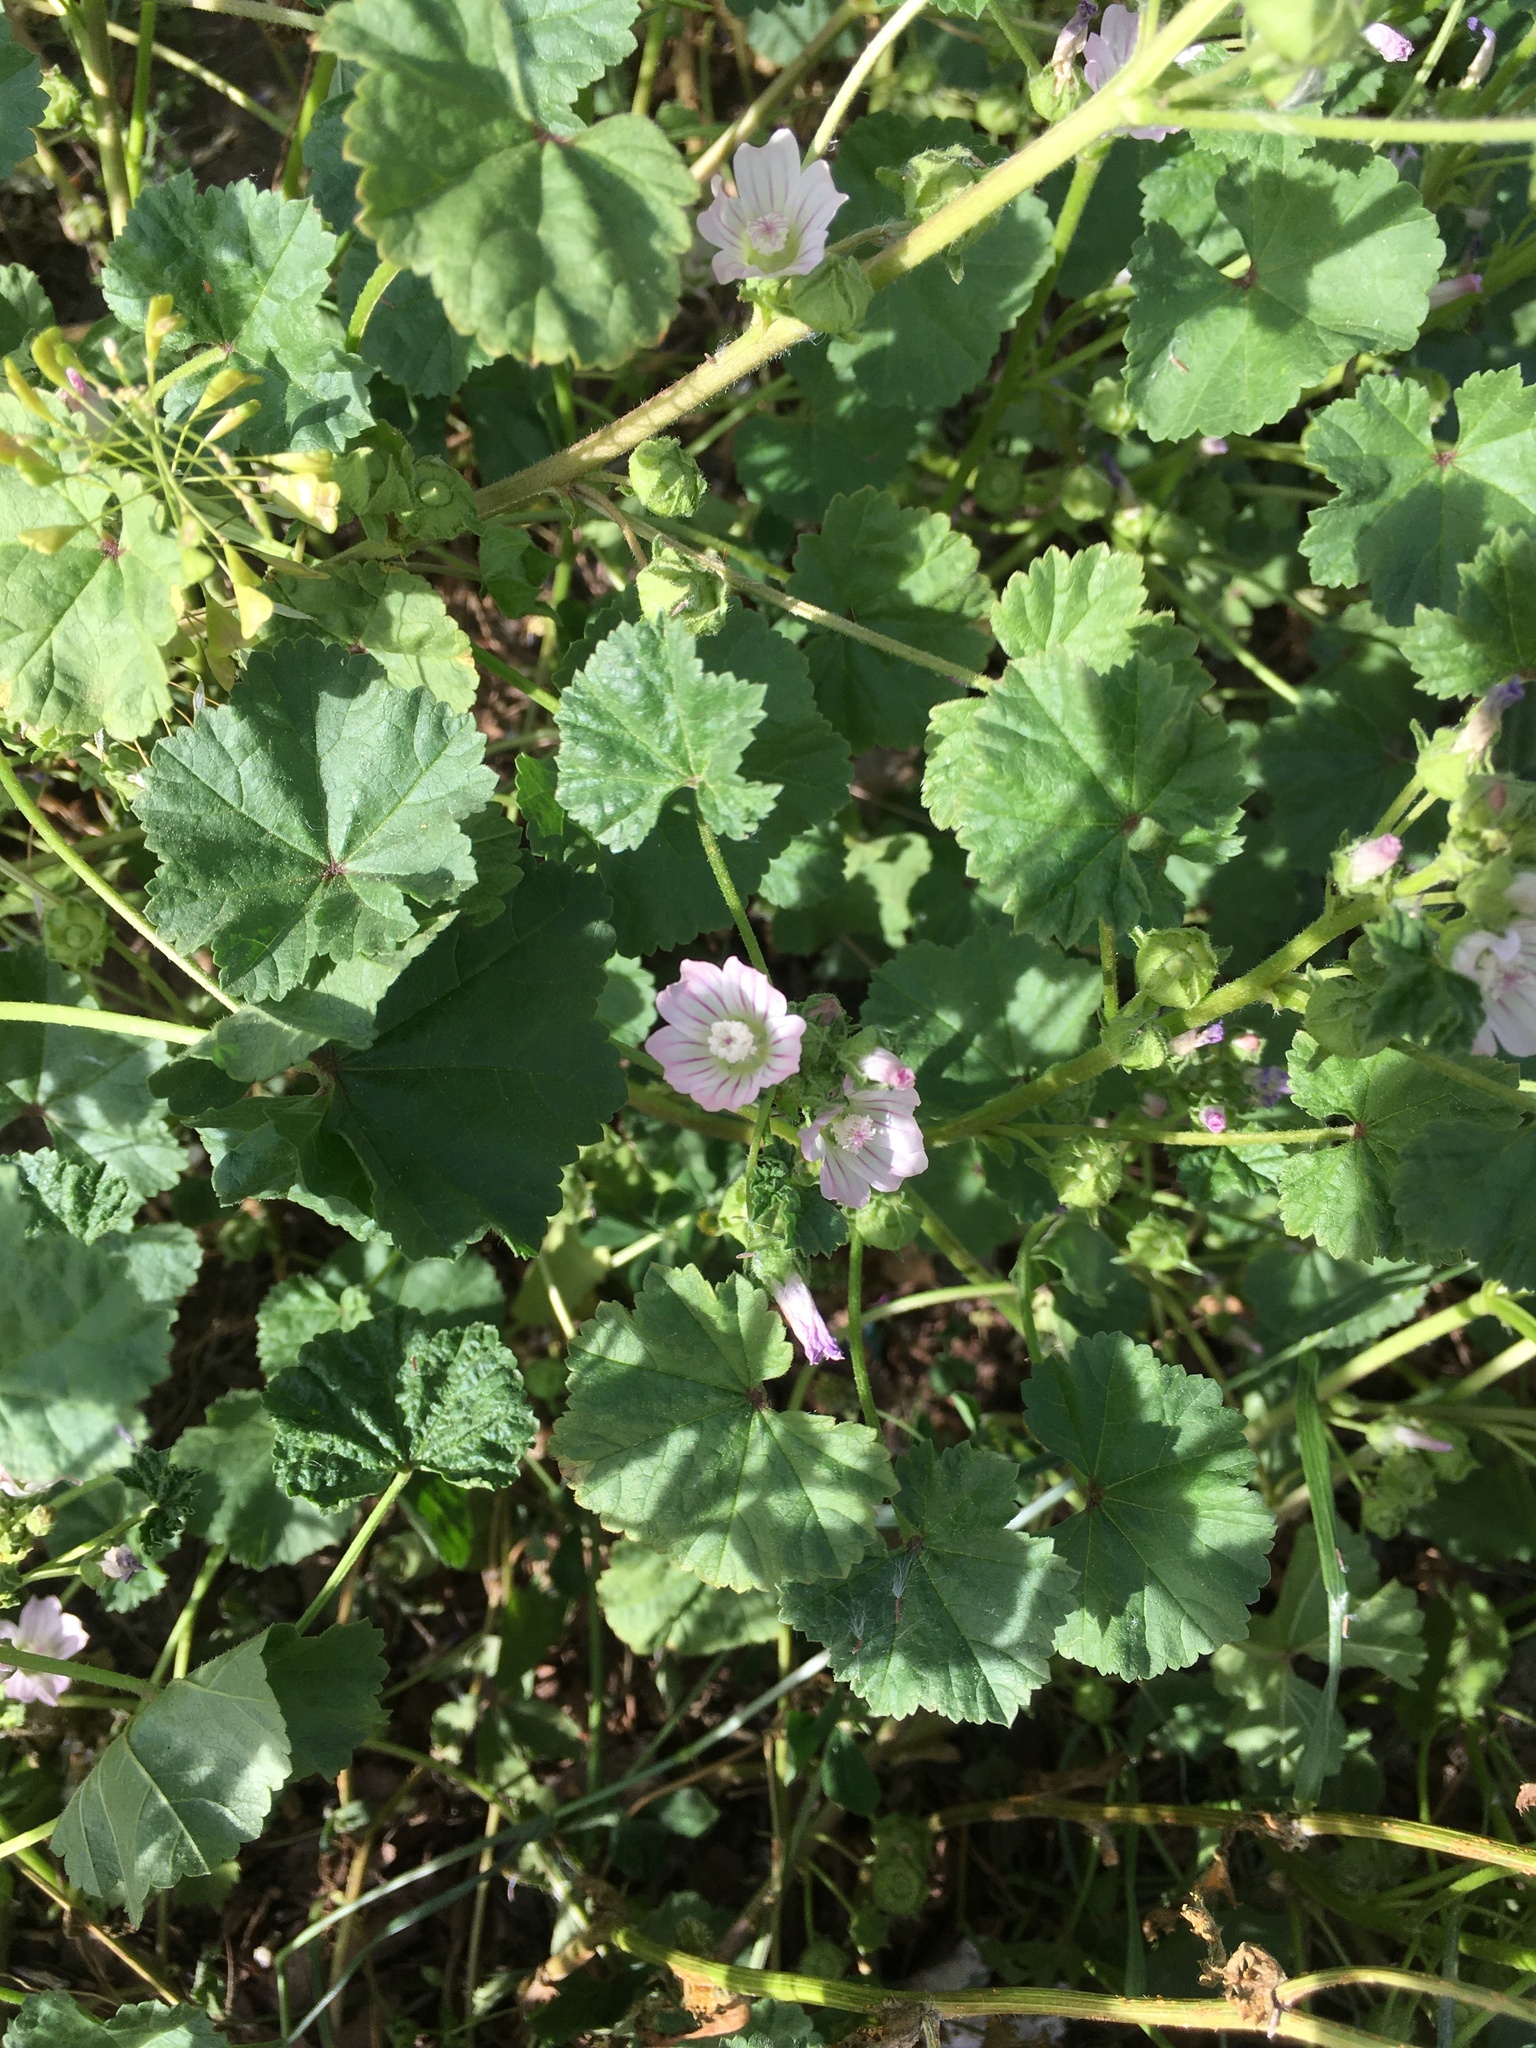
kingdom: Plantae
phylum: Tracheophyta
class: Magnoliopsida
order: Malvales
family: Malvaceae
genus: Malva
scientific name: Malva neglecta
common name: Common mallow
